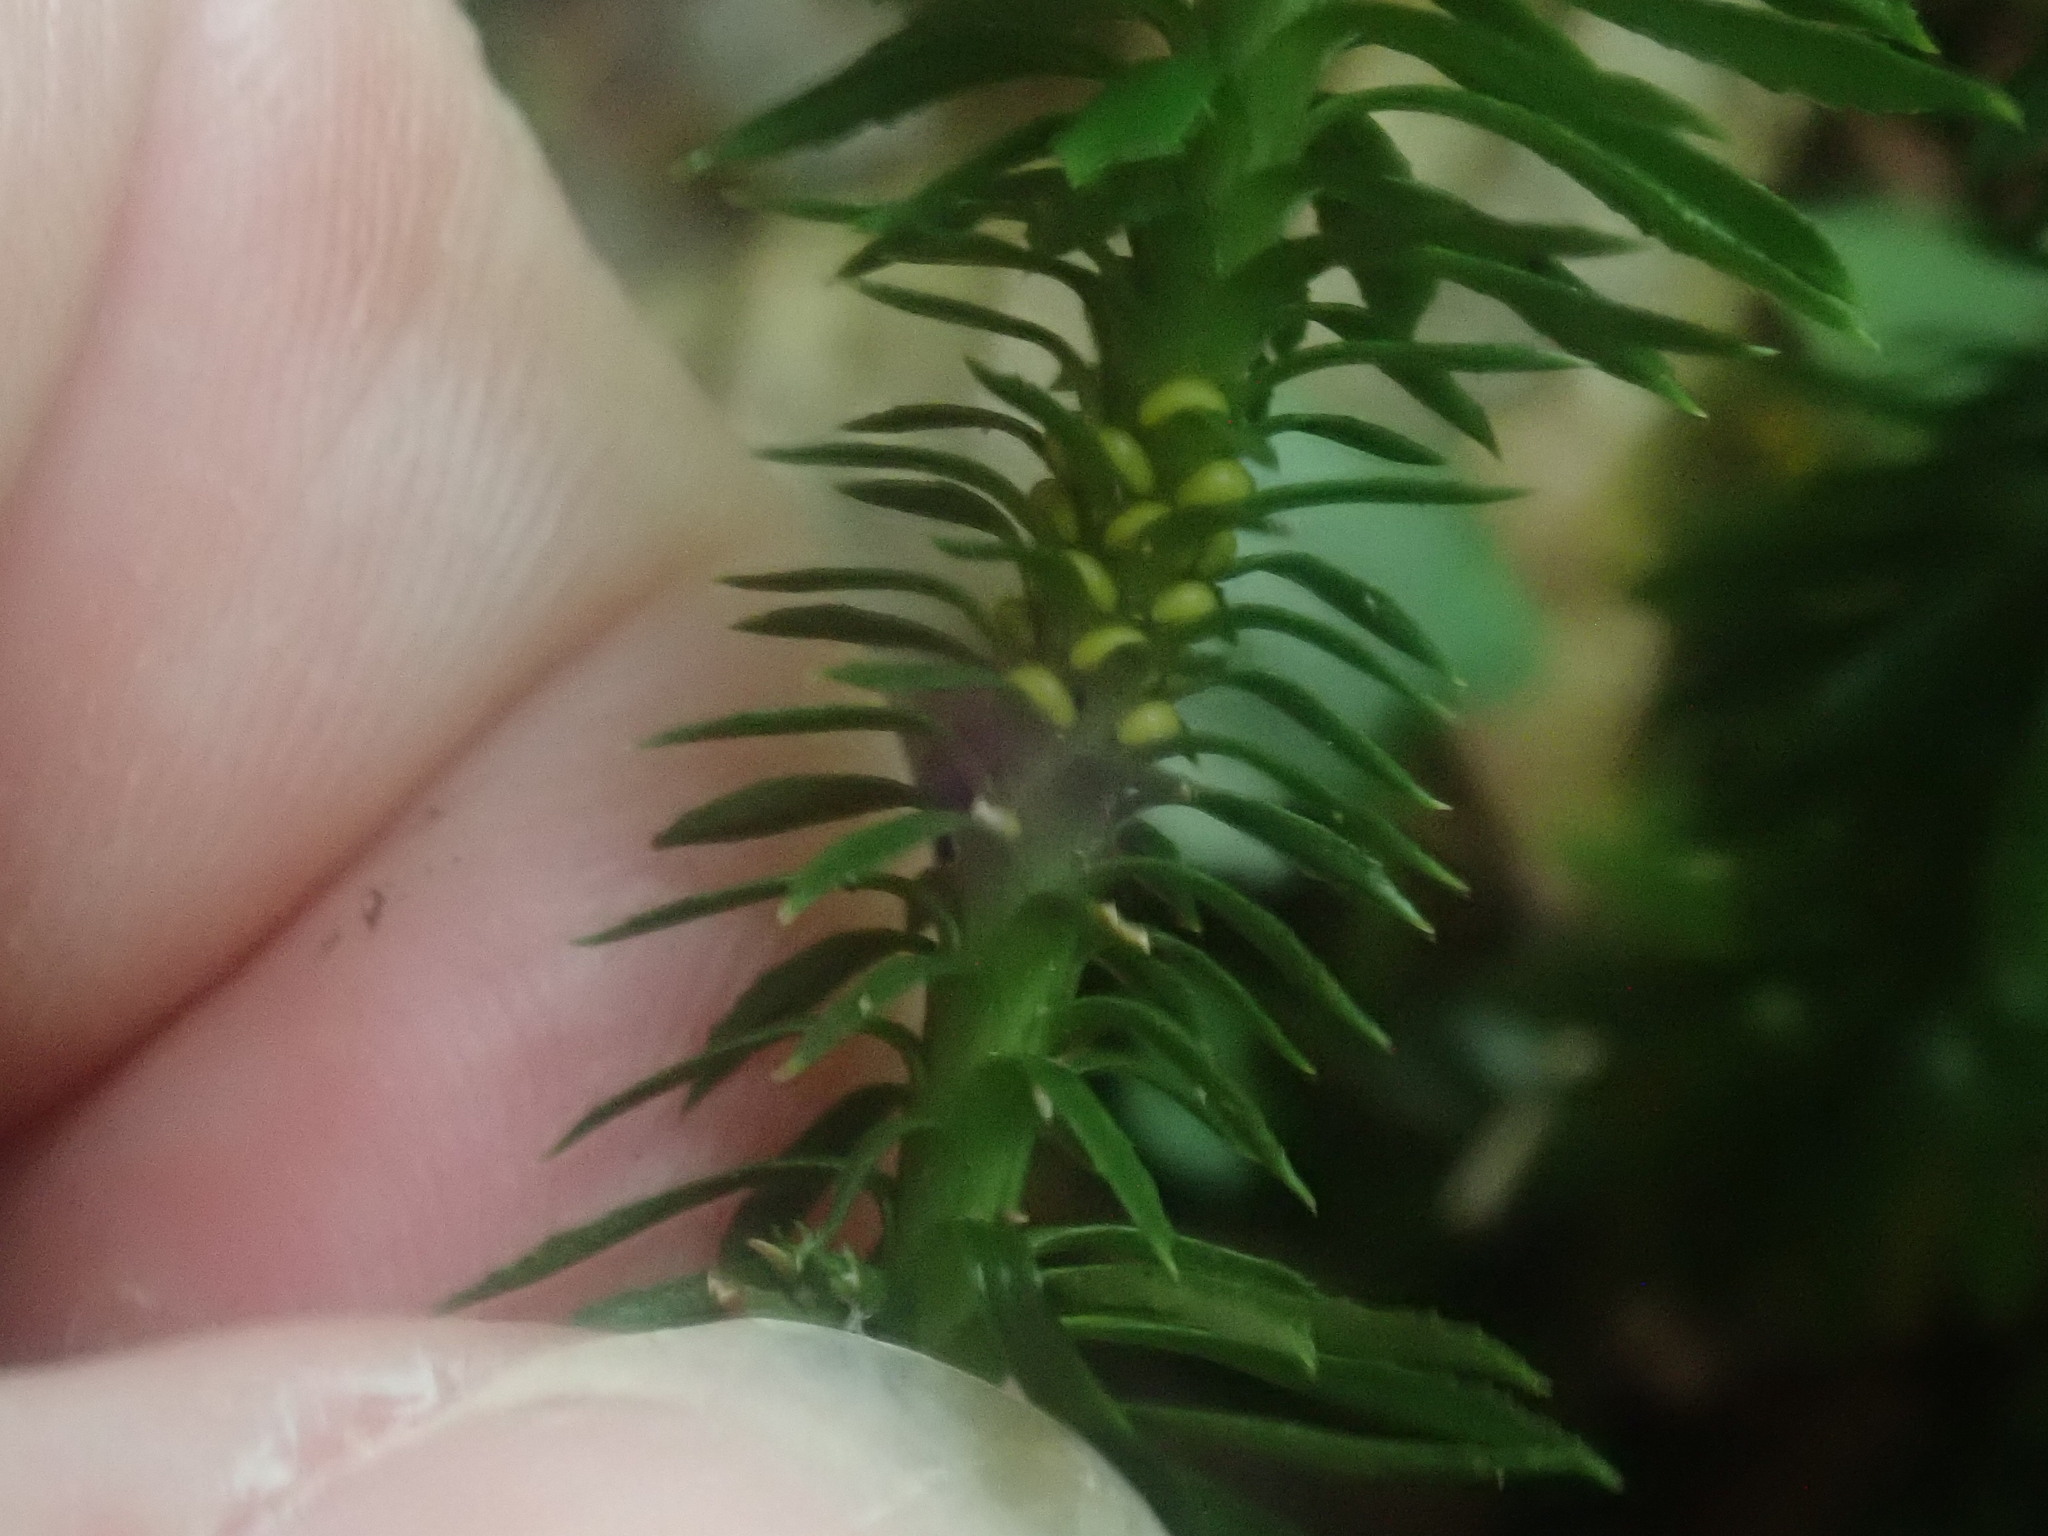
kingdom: Plantae
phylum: Tracheophyta
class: Lycopodiopsida
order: Lycopodiales
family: Lycopodiaceae
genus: Huperzia
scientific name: Huperzia lucidula
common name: Shining clubmoss
